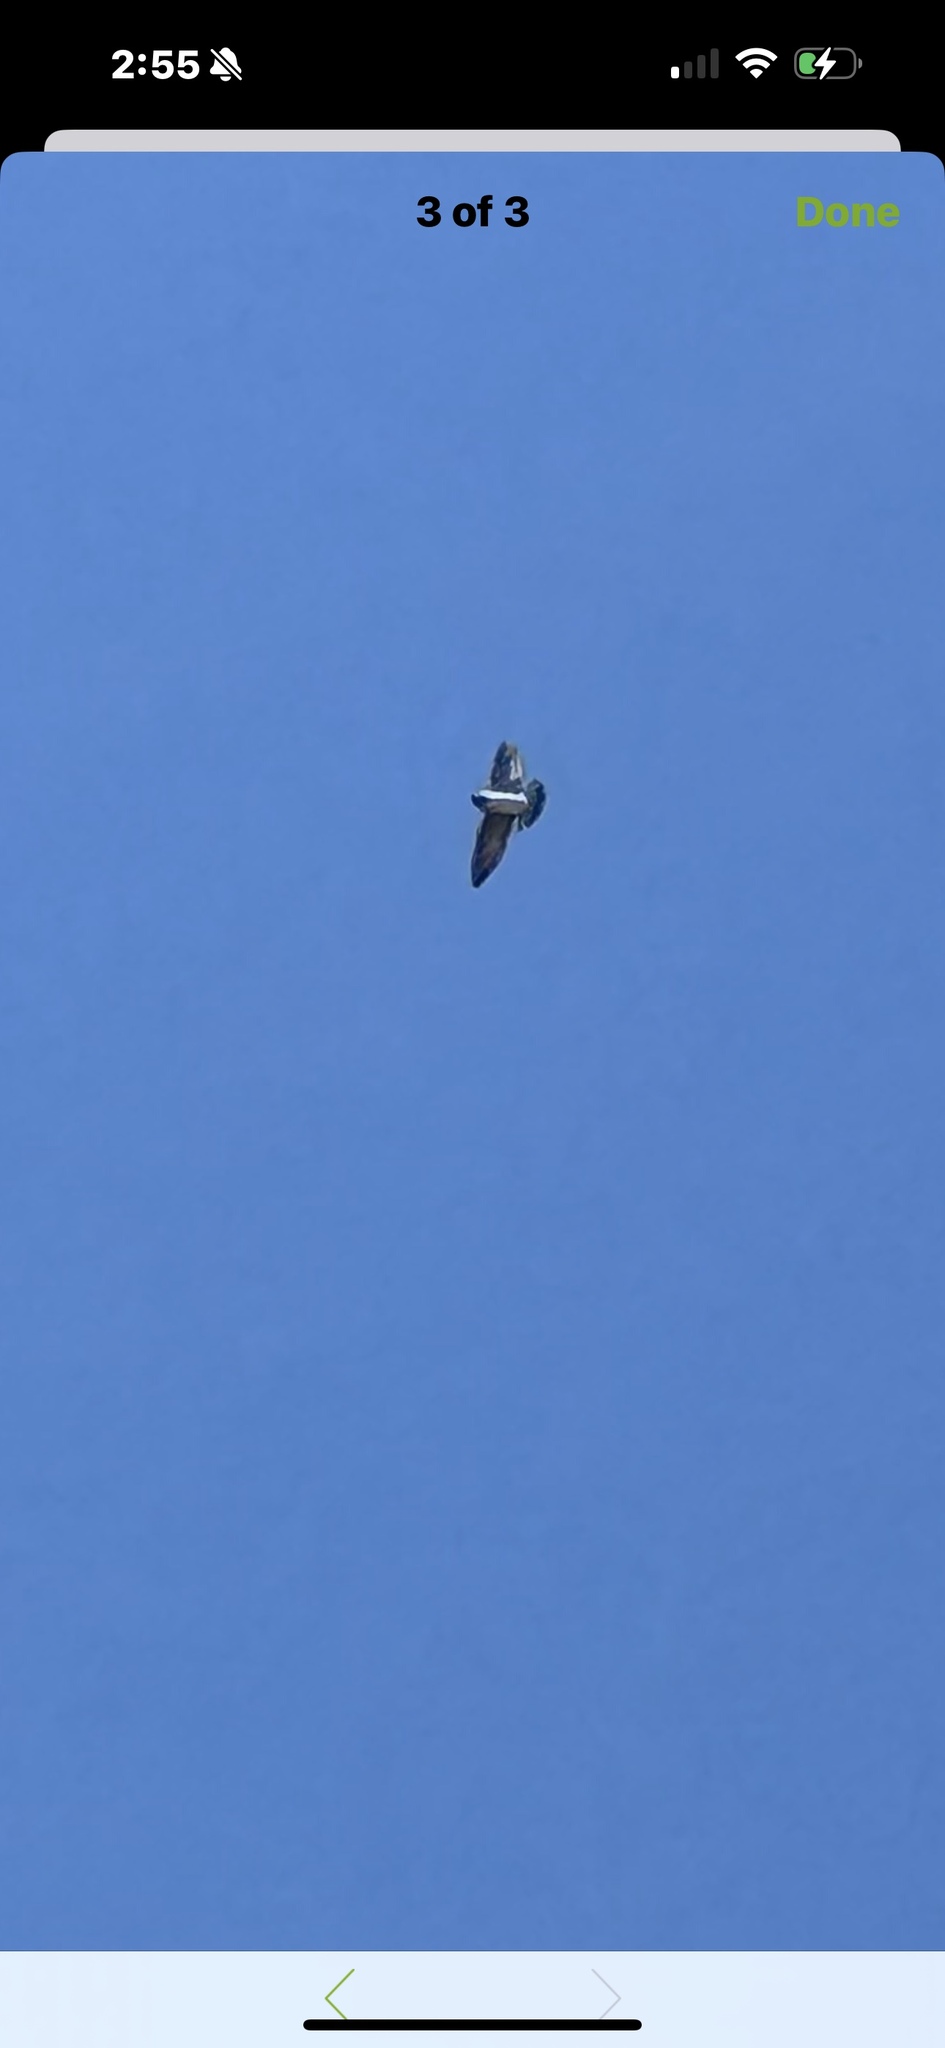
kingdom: Animalia
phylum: Chordata
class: Aves
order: Passeriformes
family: Hirundinidae
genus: Petrochelidon
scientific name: Petrochelidon pyrrhonota
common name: American cliff swallow
